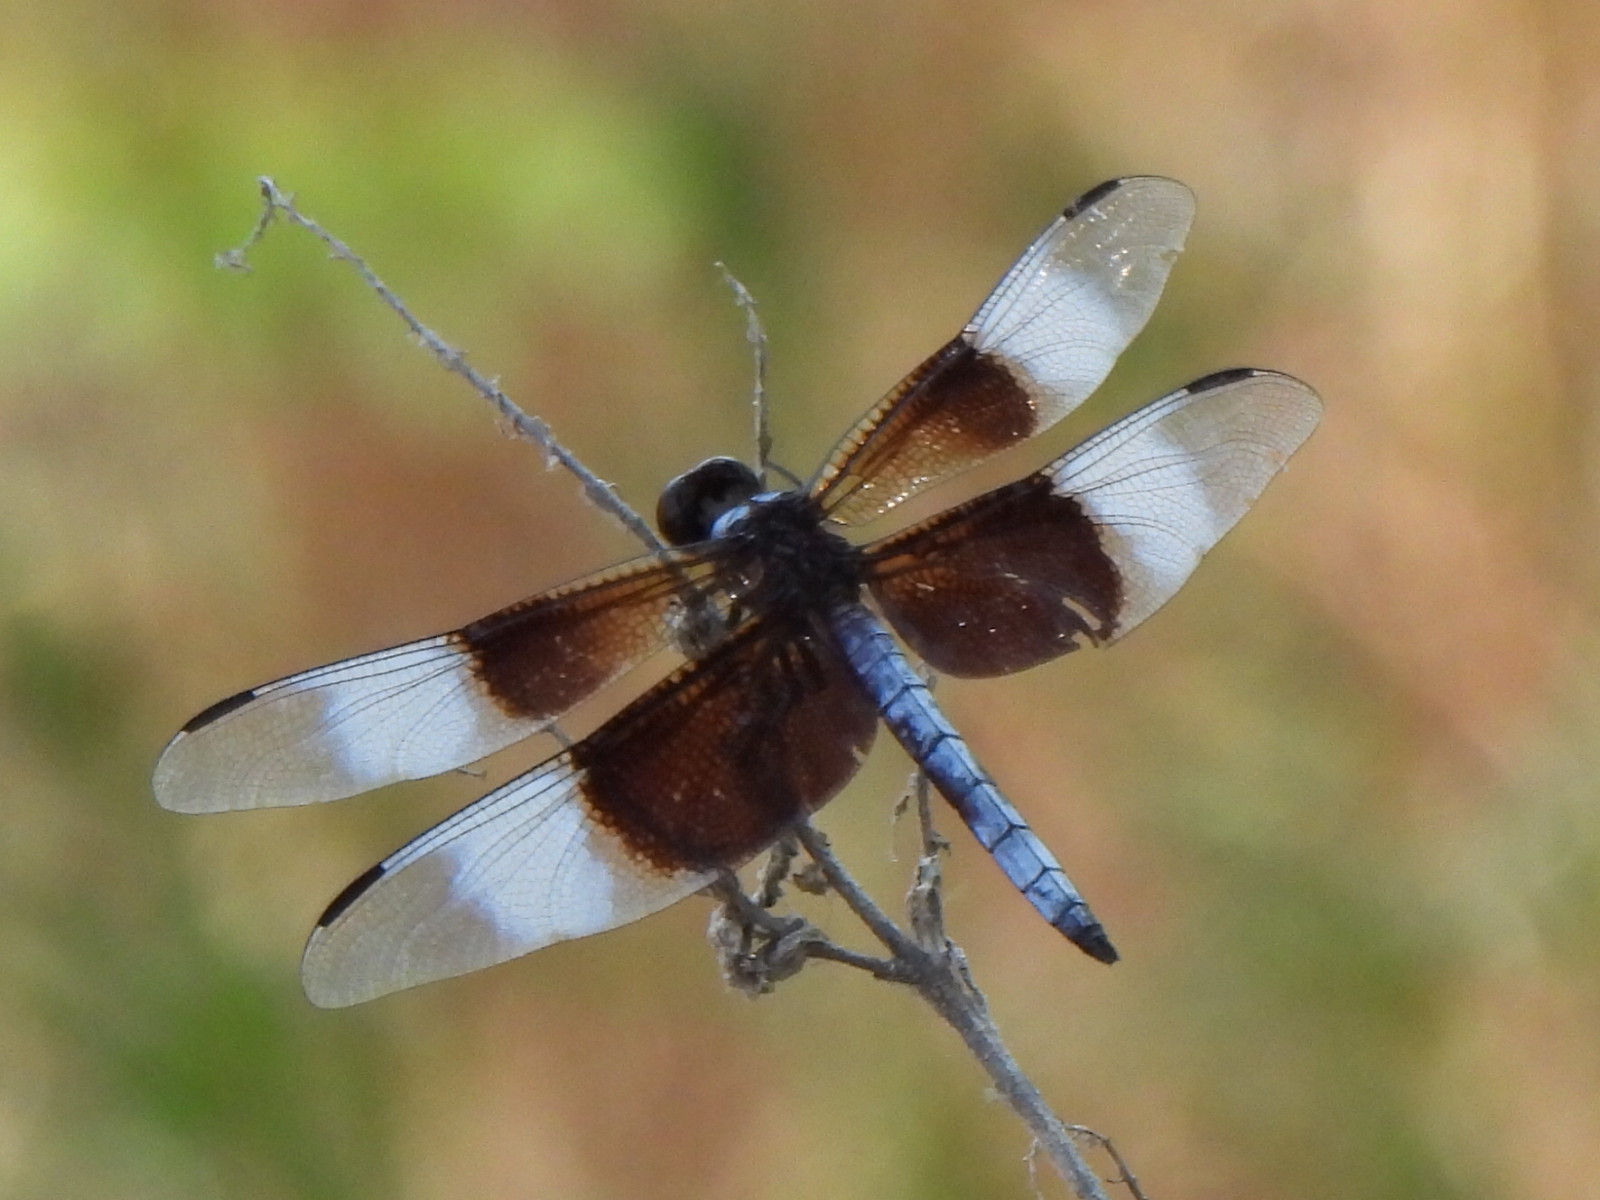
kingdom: Animalia
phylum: Arthropoda
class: Insecta
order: Odonata
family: Libellulidae
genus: Libellula
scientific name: Libellula luctuosa
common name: Widow skimmer
